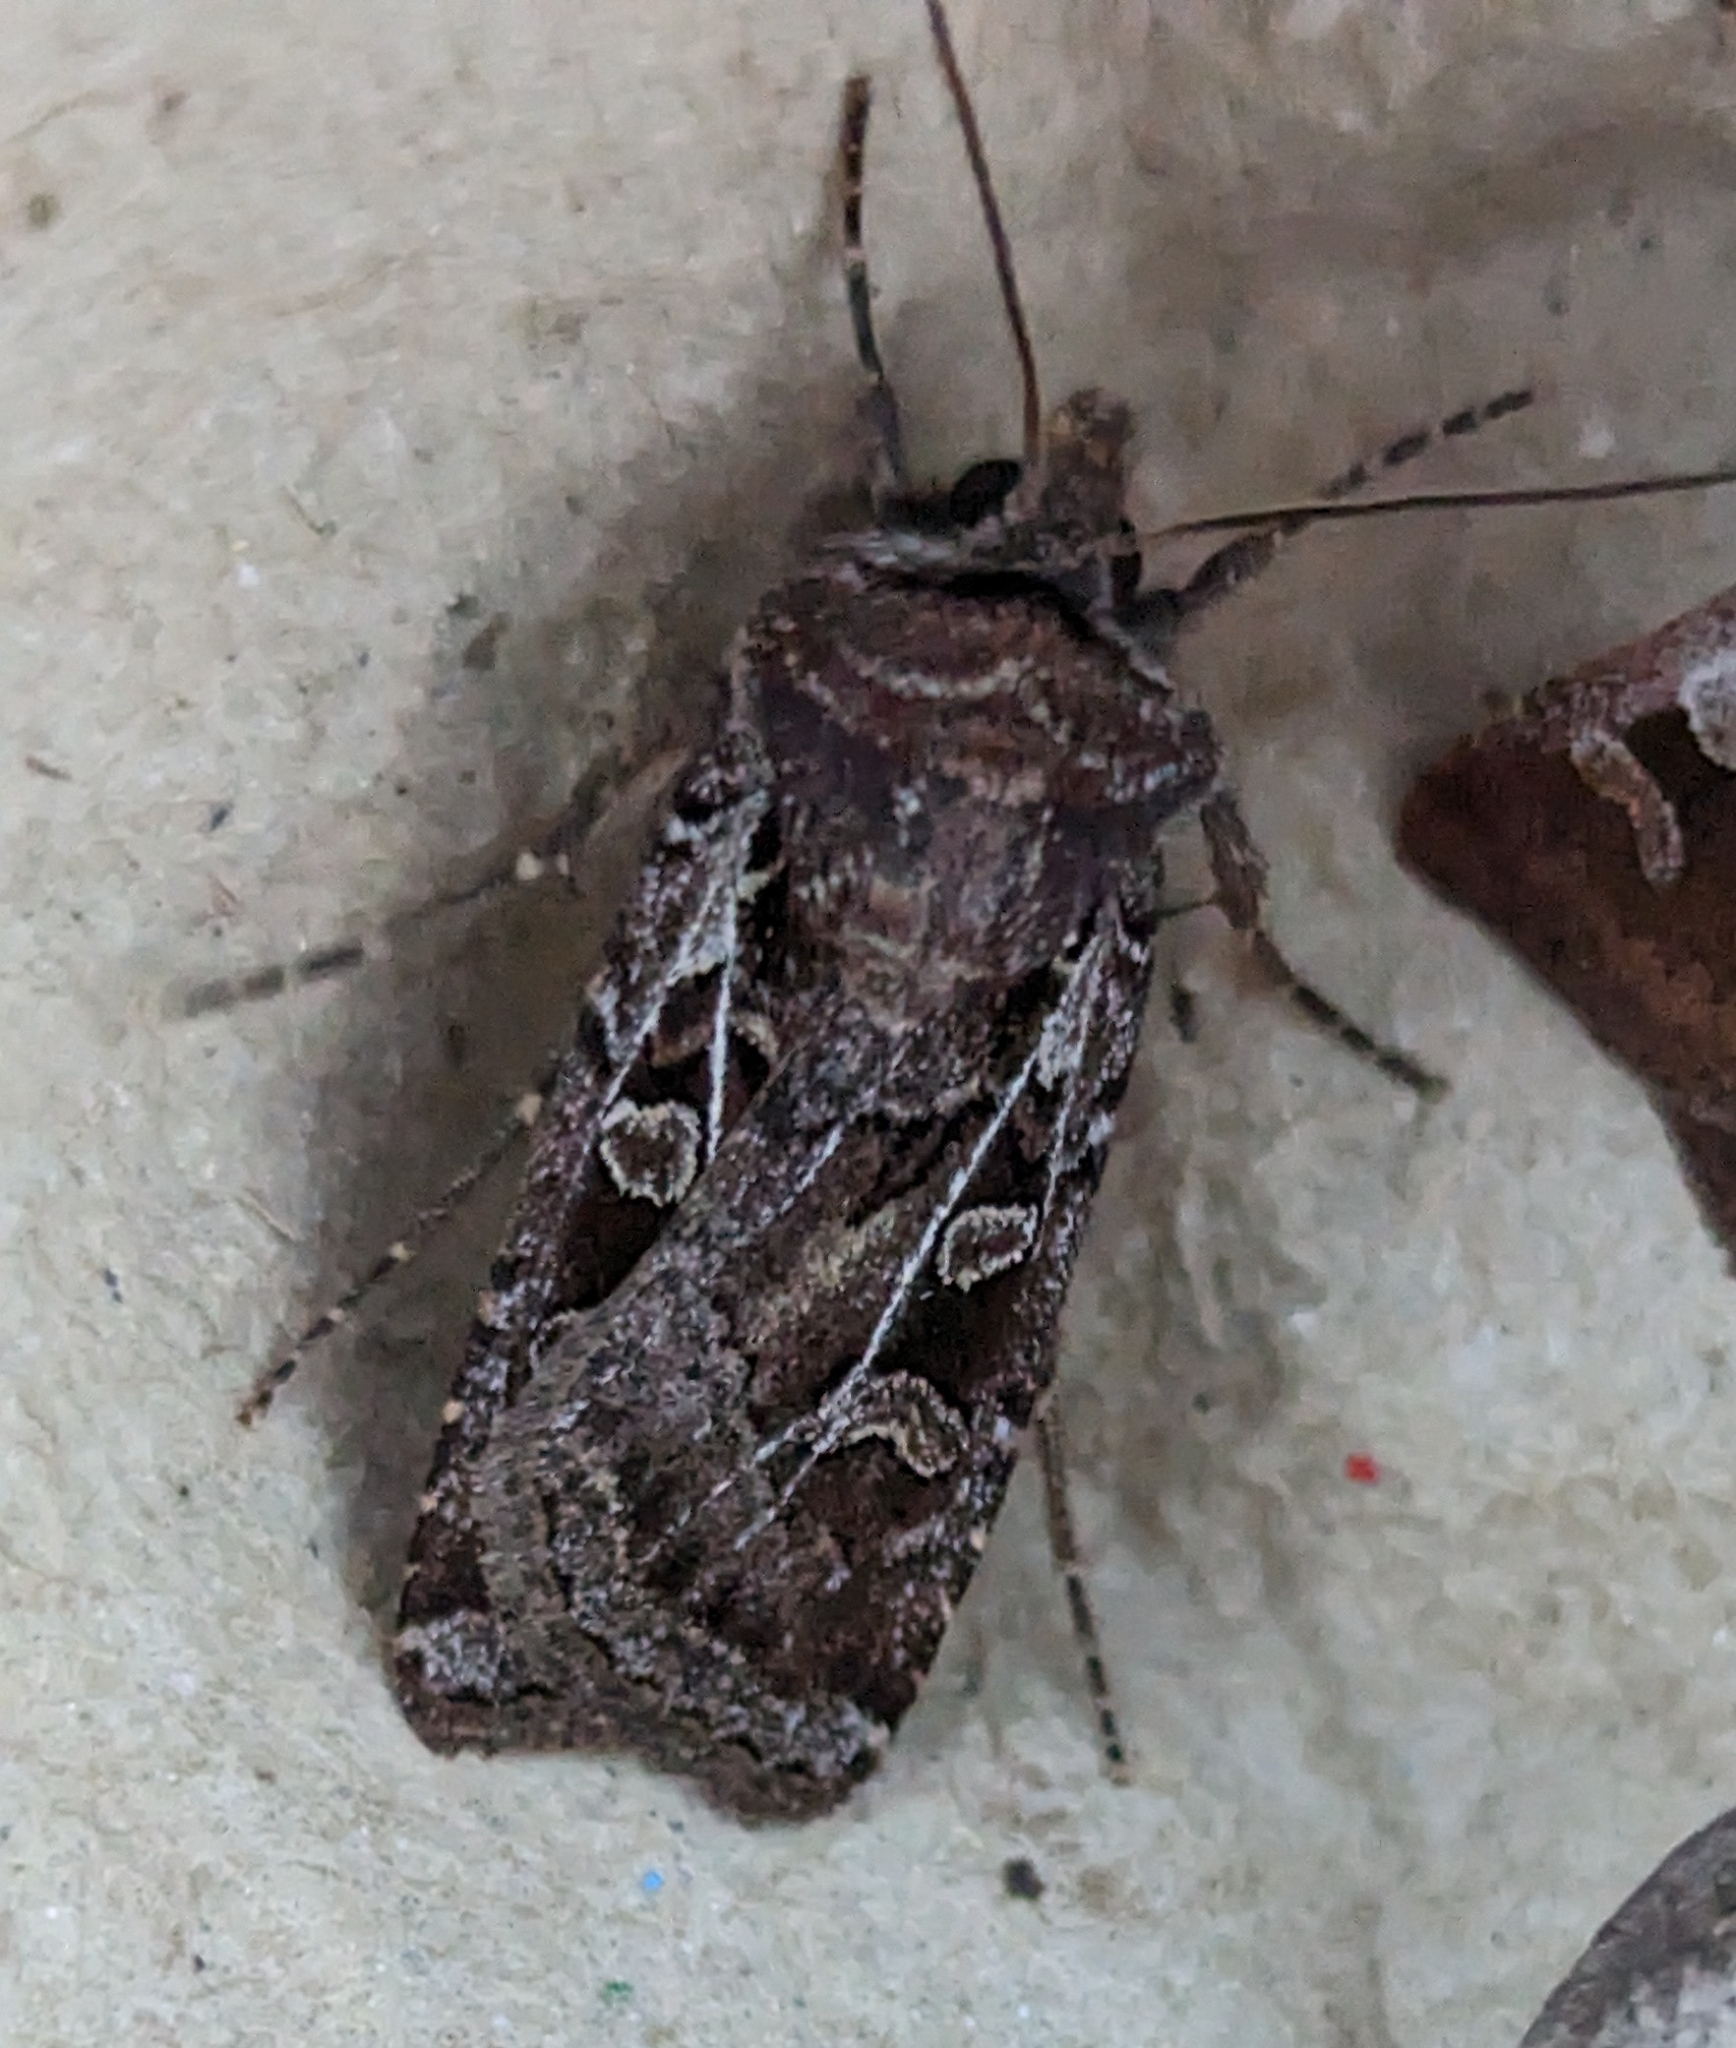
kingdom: Animalia
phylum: Arthropoda
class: Insecta
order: Lepidoptera
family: Noctuidae
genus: Euxoa
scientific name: Euxoa divergens
